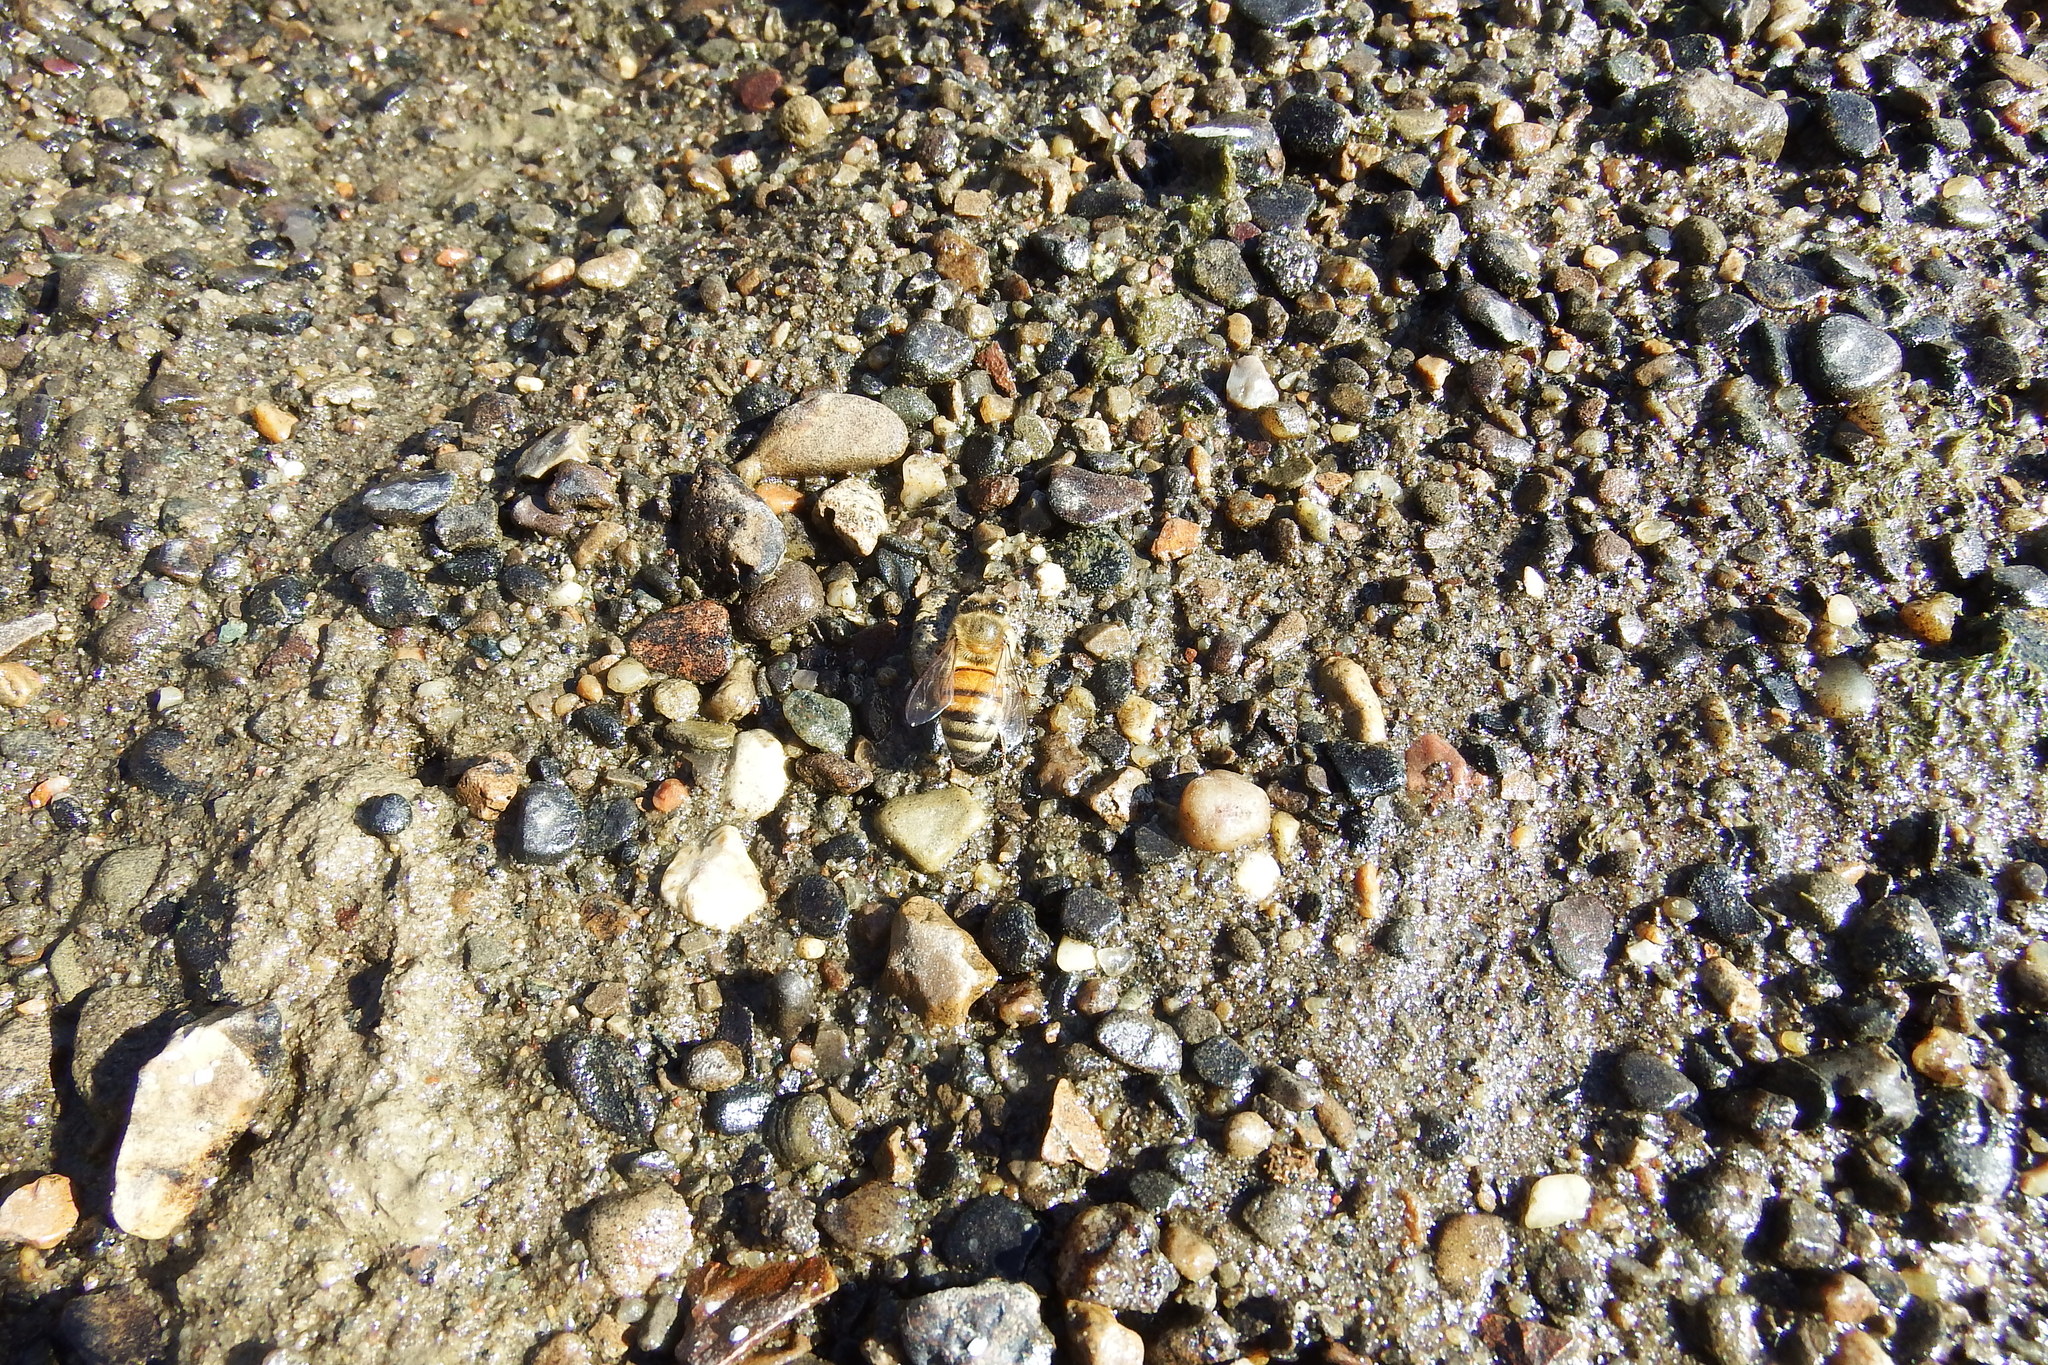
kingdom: Animalia
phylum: Arthropoda
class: Insecta
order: Hymenoptera
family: Apidae
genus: Apis
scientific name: Apis mellifera
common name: Honey bee
